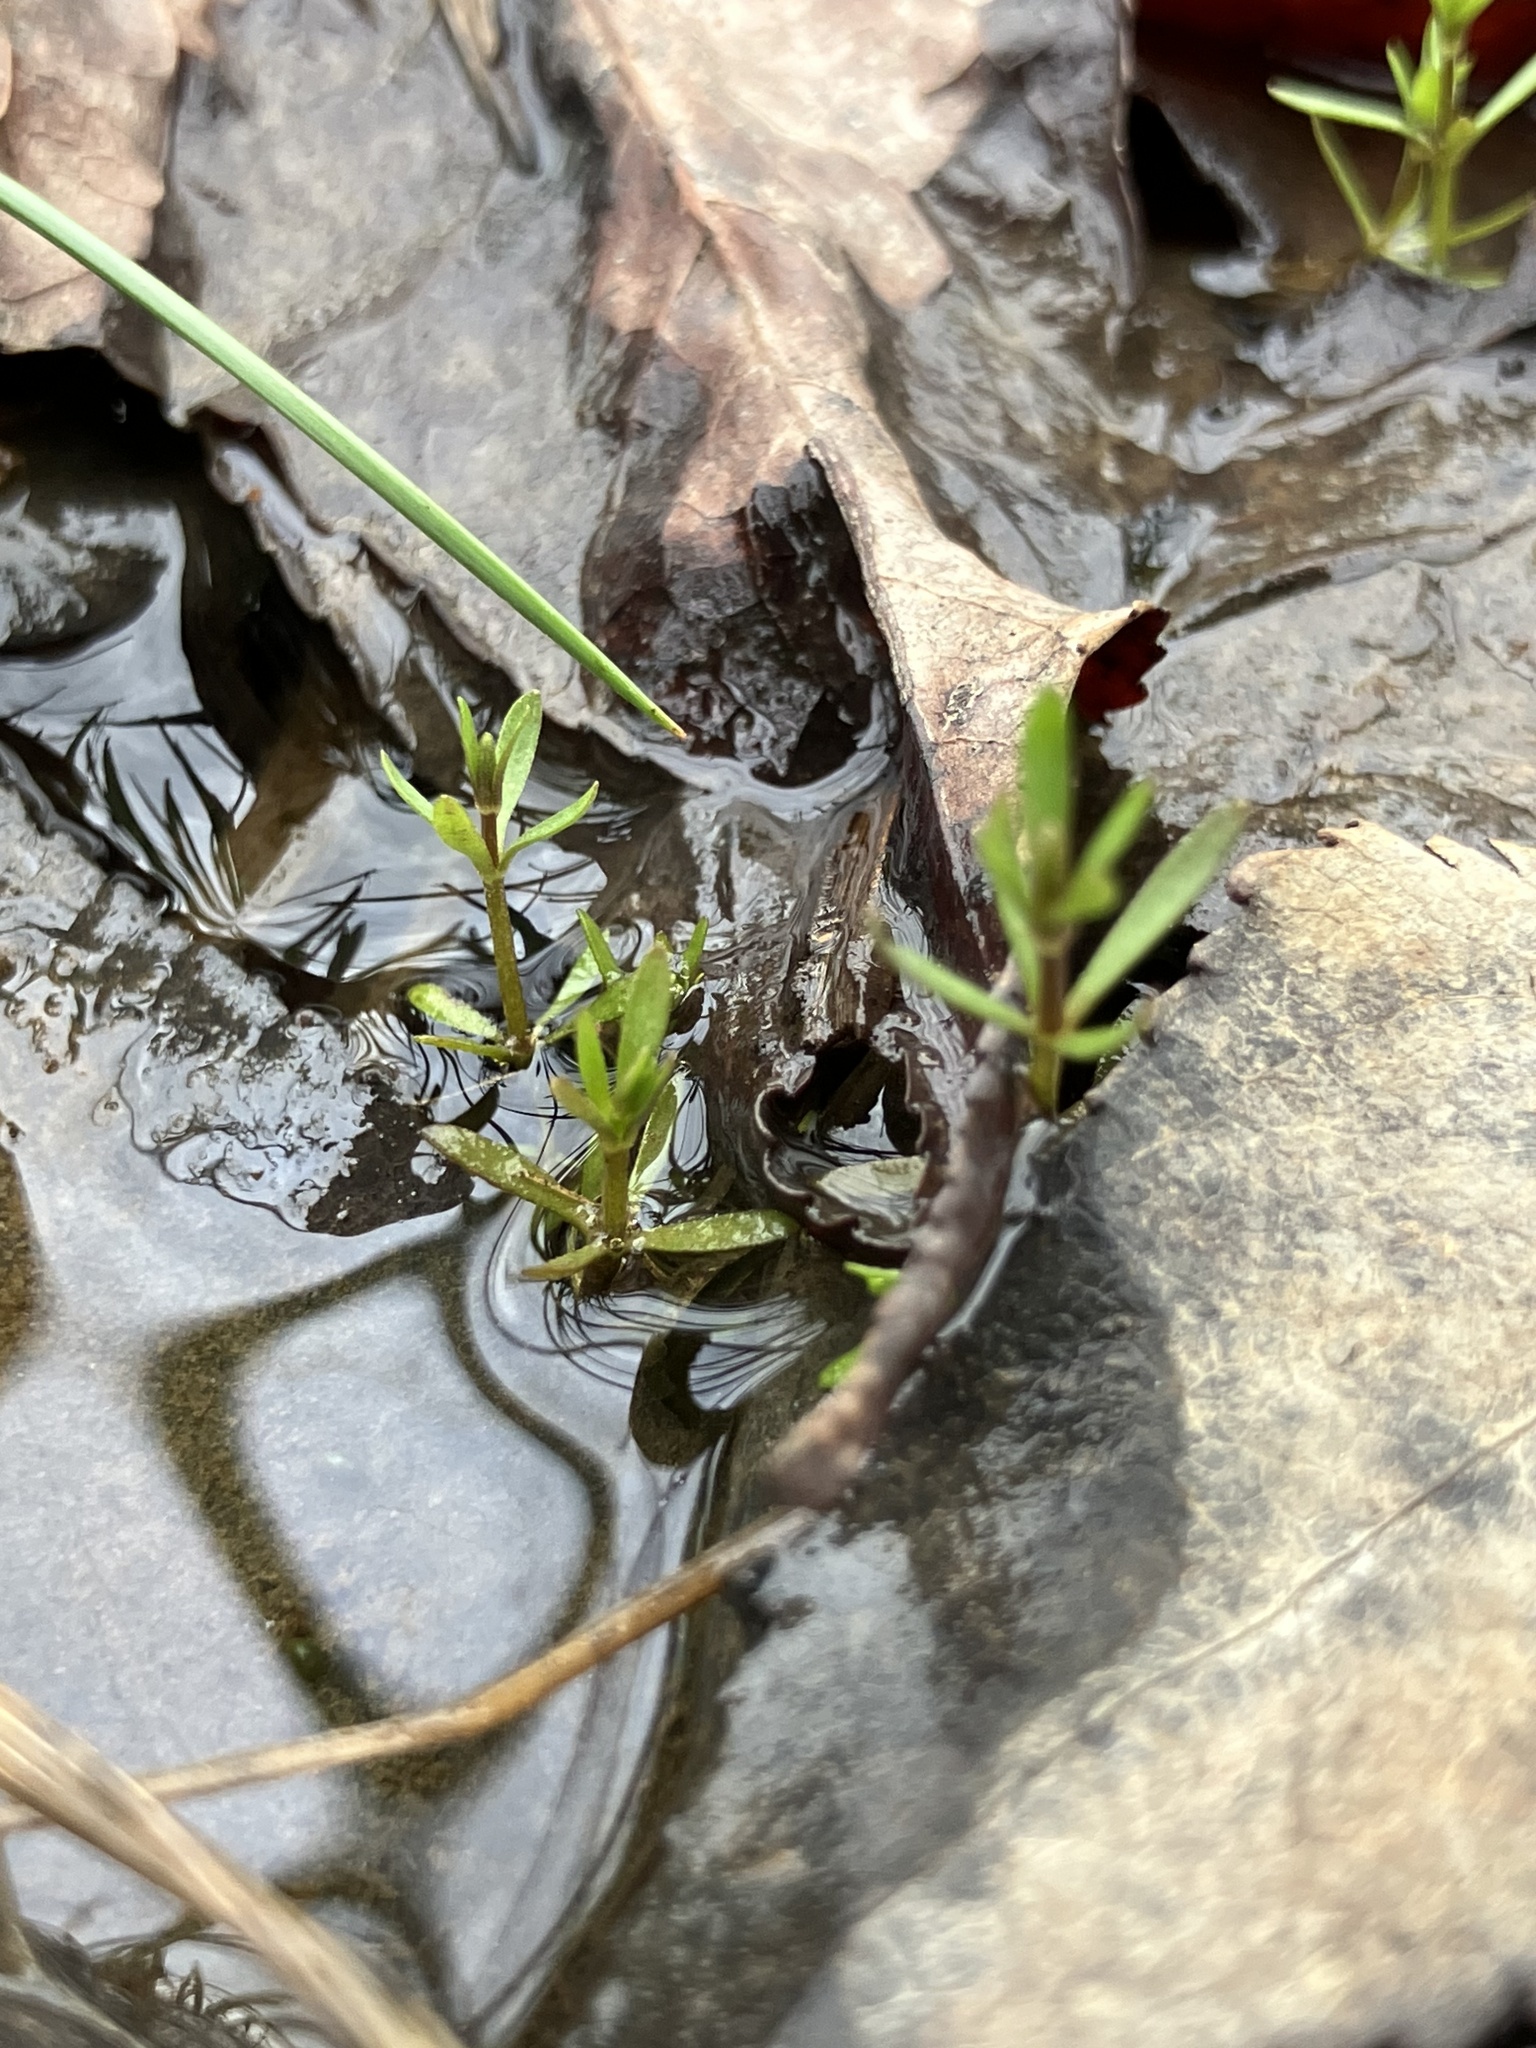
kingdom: Plantae
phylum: Tracheophyta
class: Magnoliopsida
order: Lamiales
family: Plantaginaceae
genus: Callitriche
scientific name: Callitriche heterophylla
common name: Two-headed water-starwort
